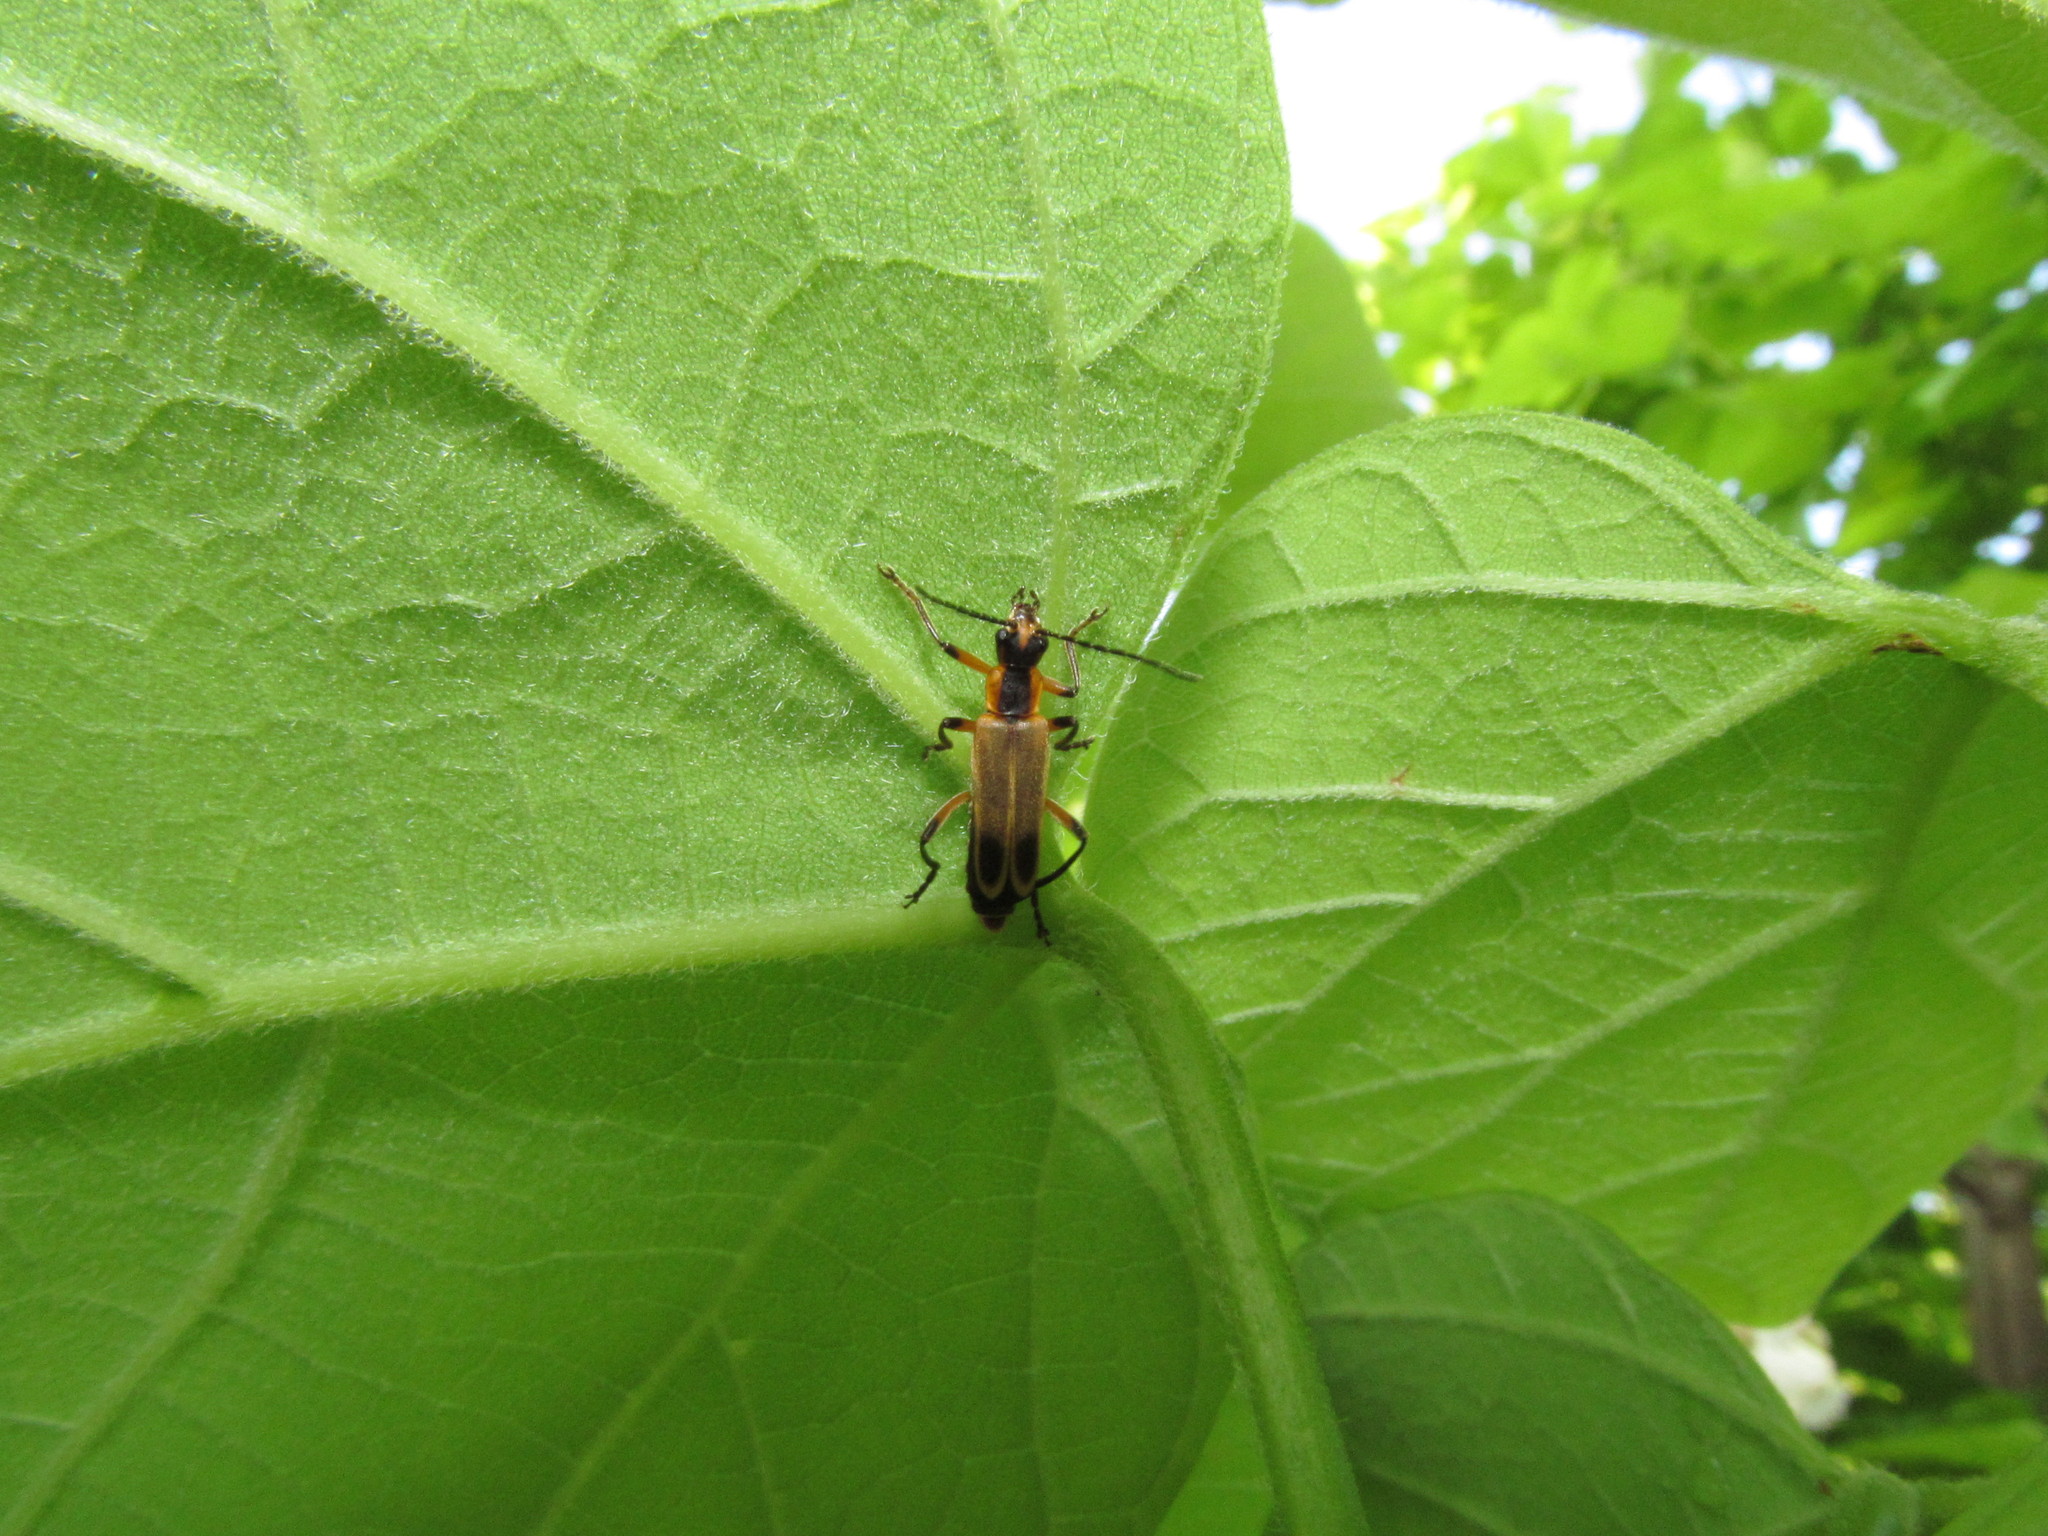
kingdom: Animalia
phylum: Arthropoda
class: Insecta
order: Coleoptera
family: Cantharidae
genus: Chauliognathus
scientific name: Chauliognathus marginatus
